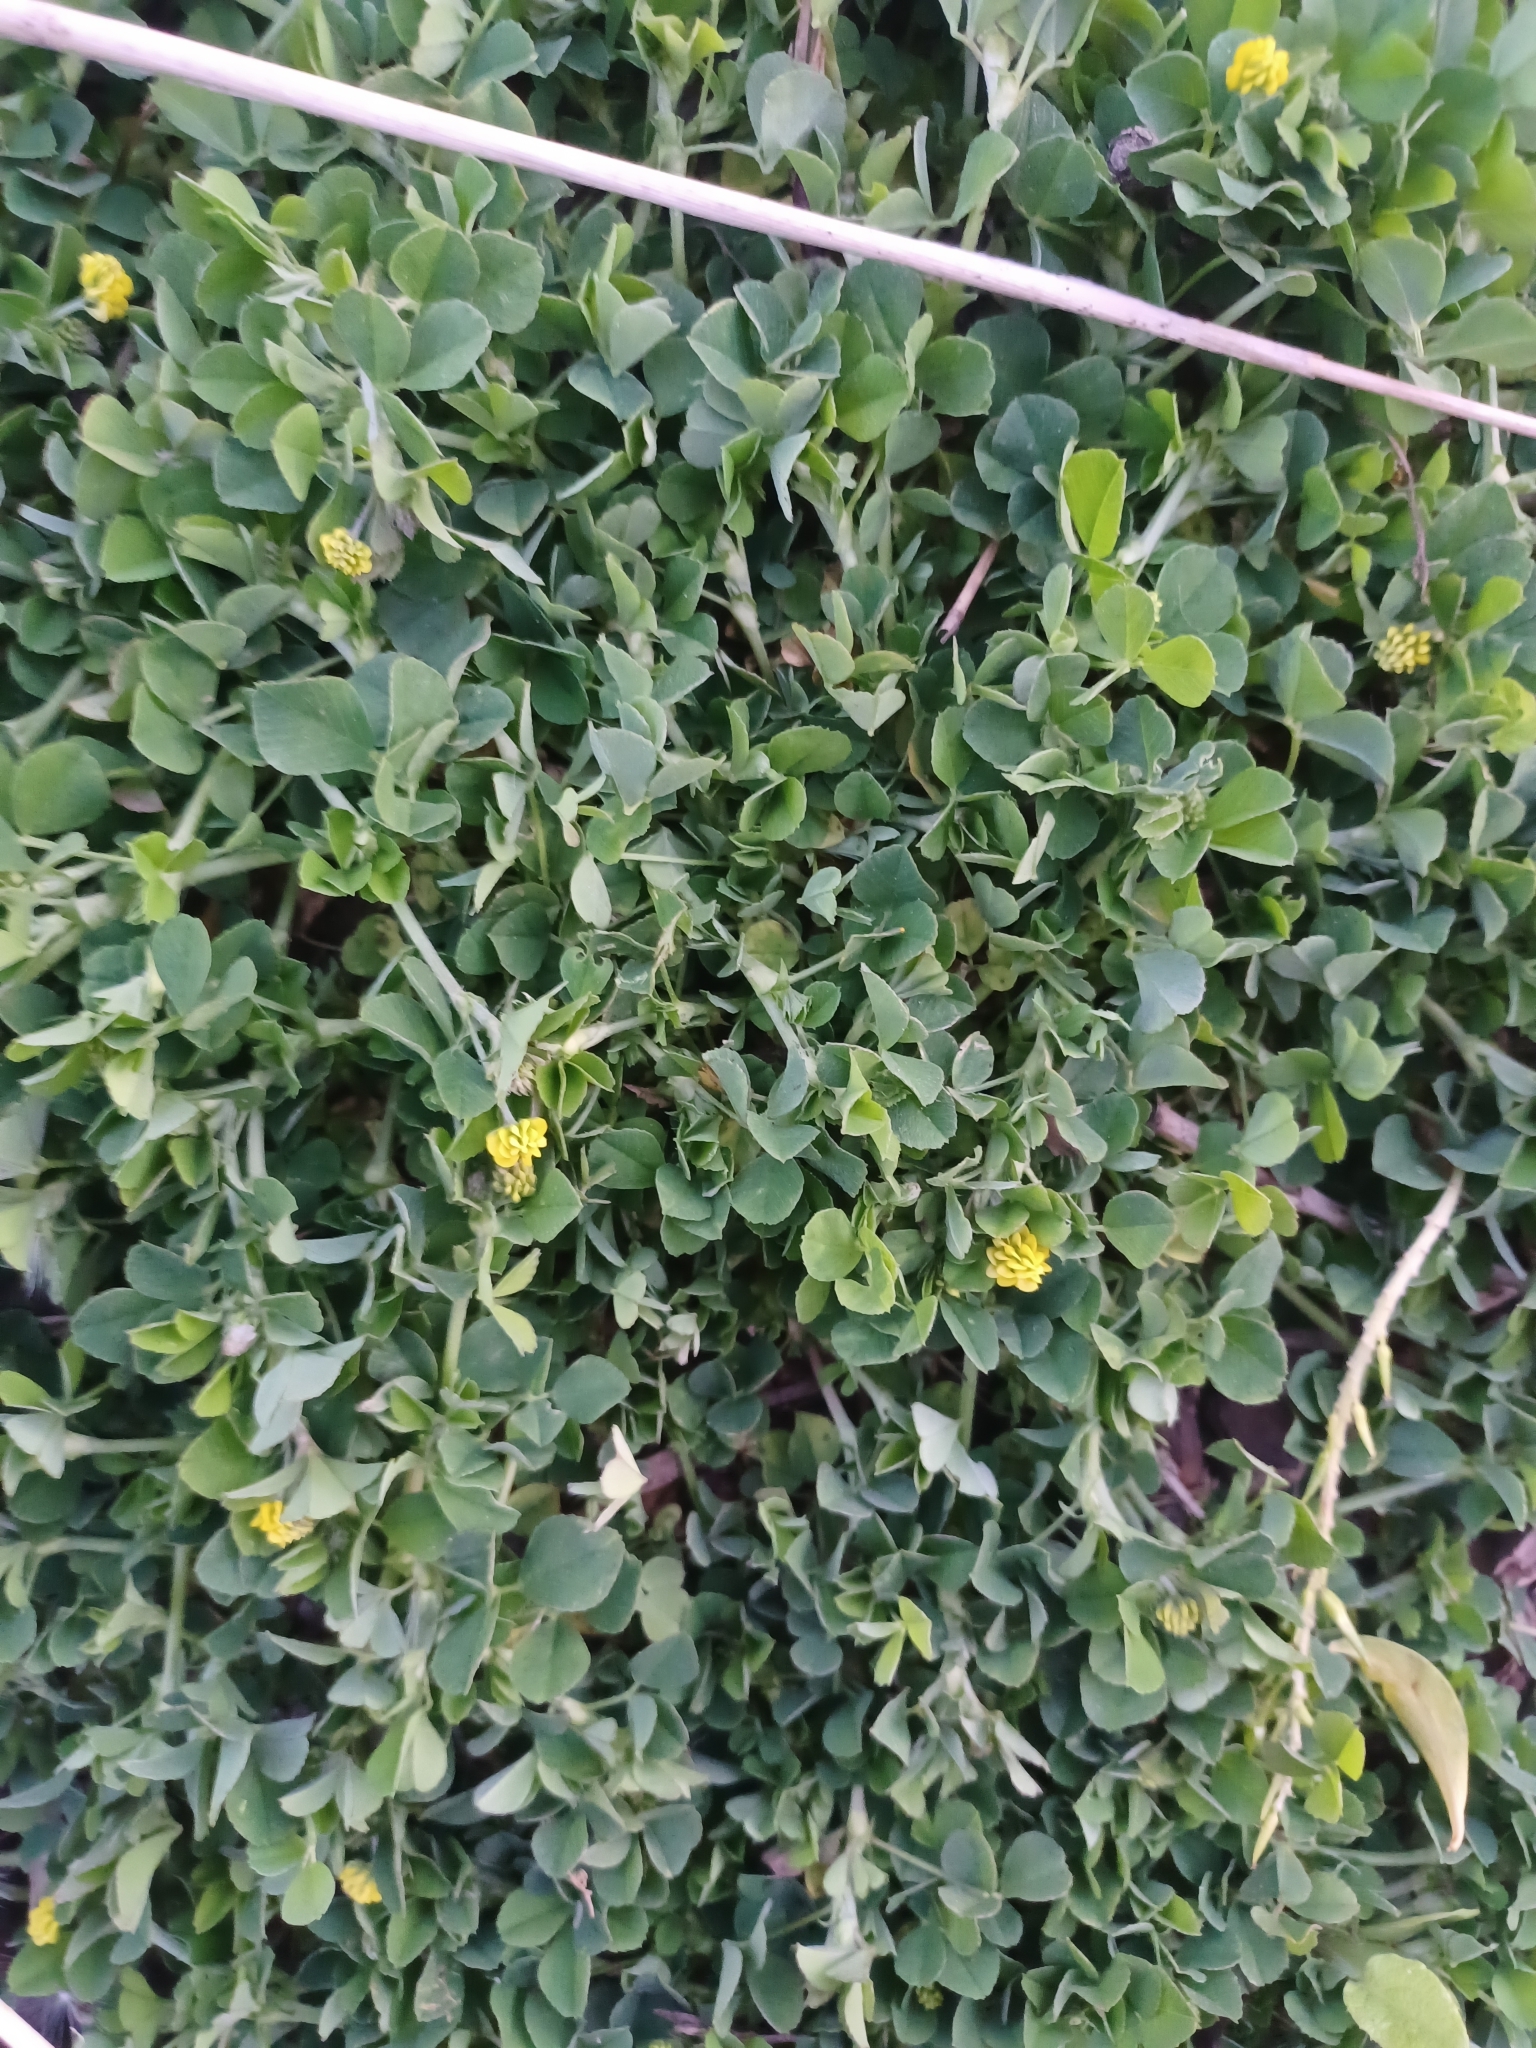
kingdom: Plantae
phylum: Tracheophyta
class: Magnoliopsida
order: Fabales
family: Fabaceae
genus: Medicago
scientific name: Medicago lupulina
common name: Black medick
